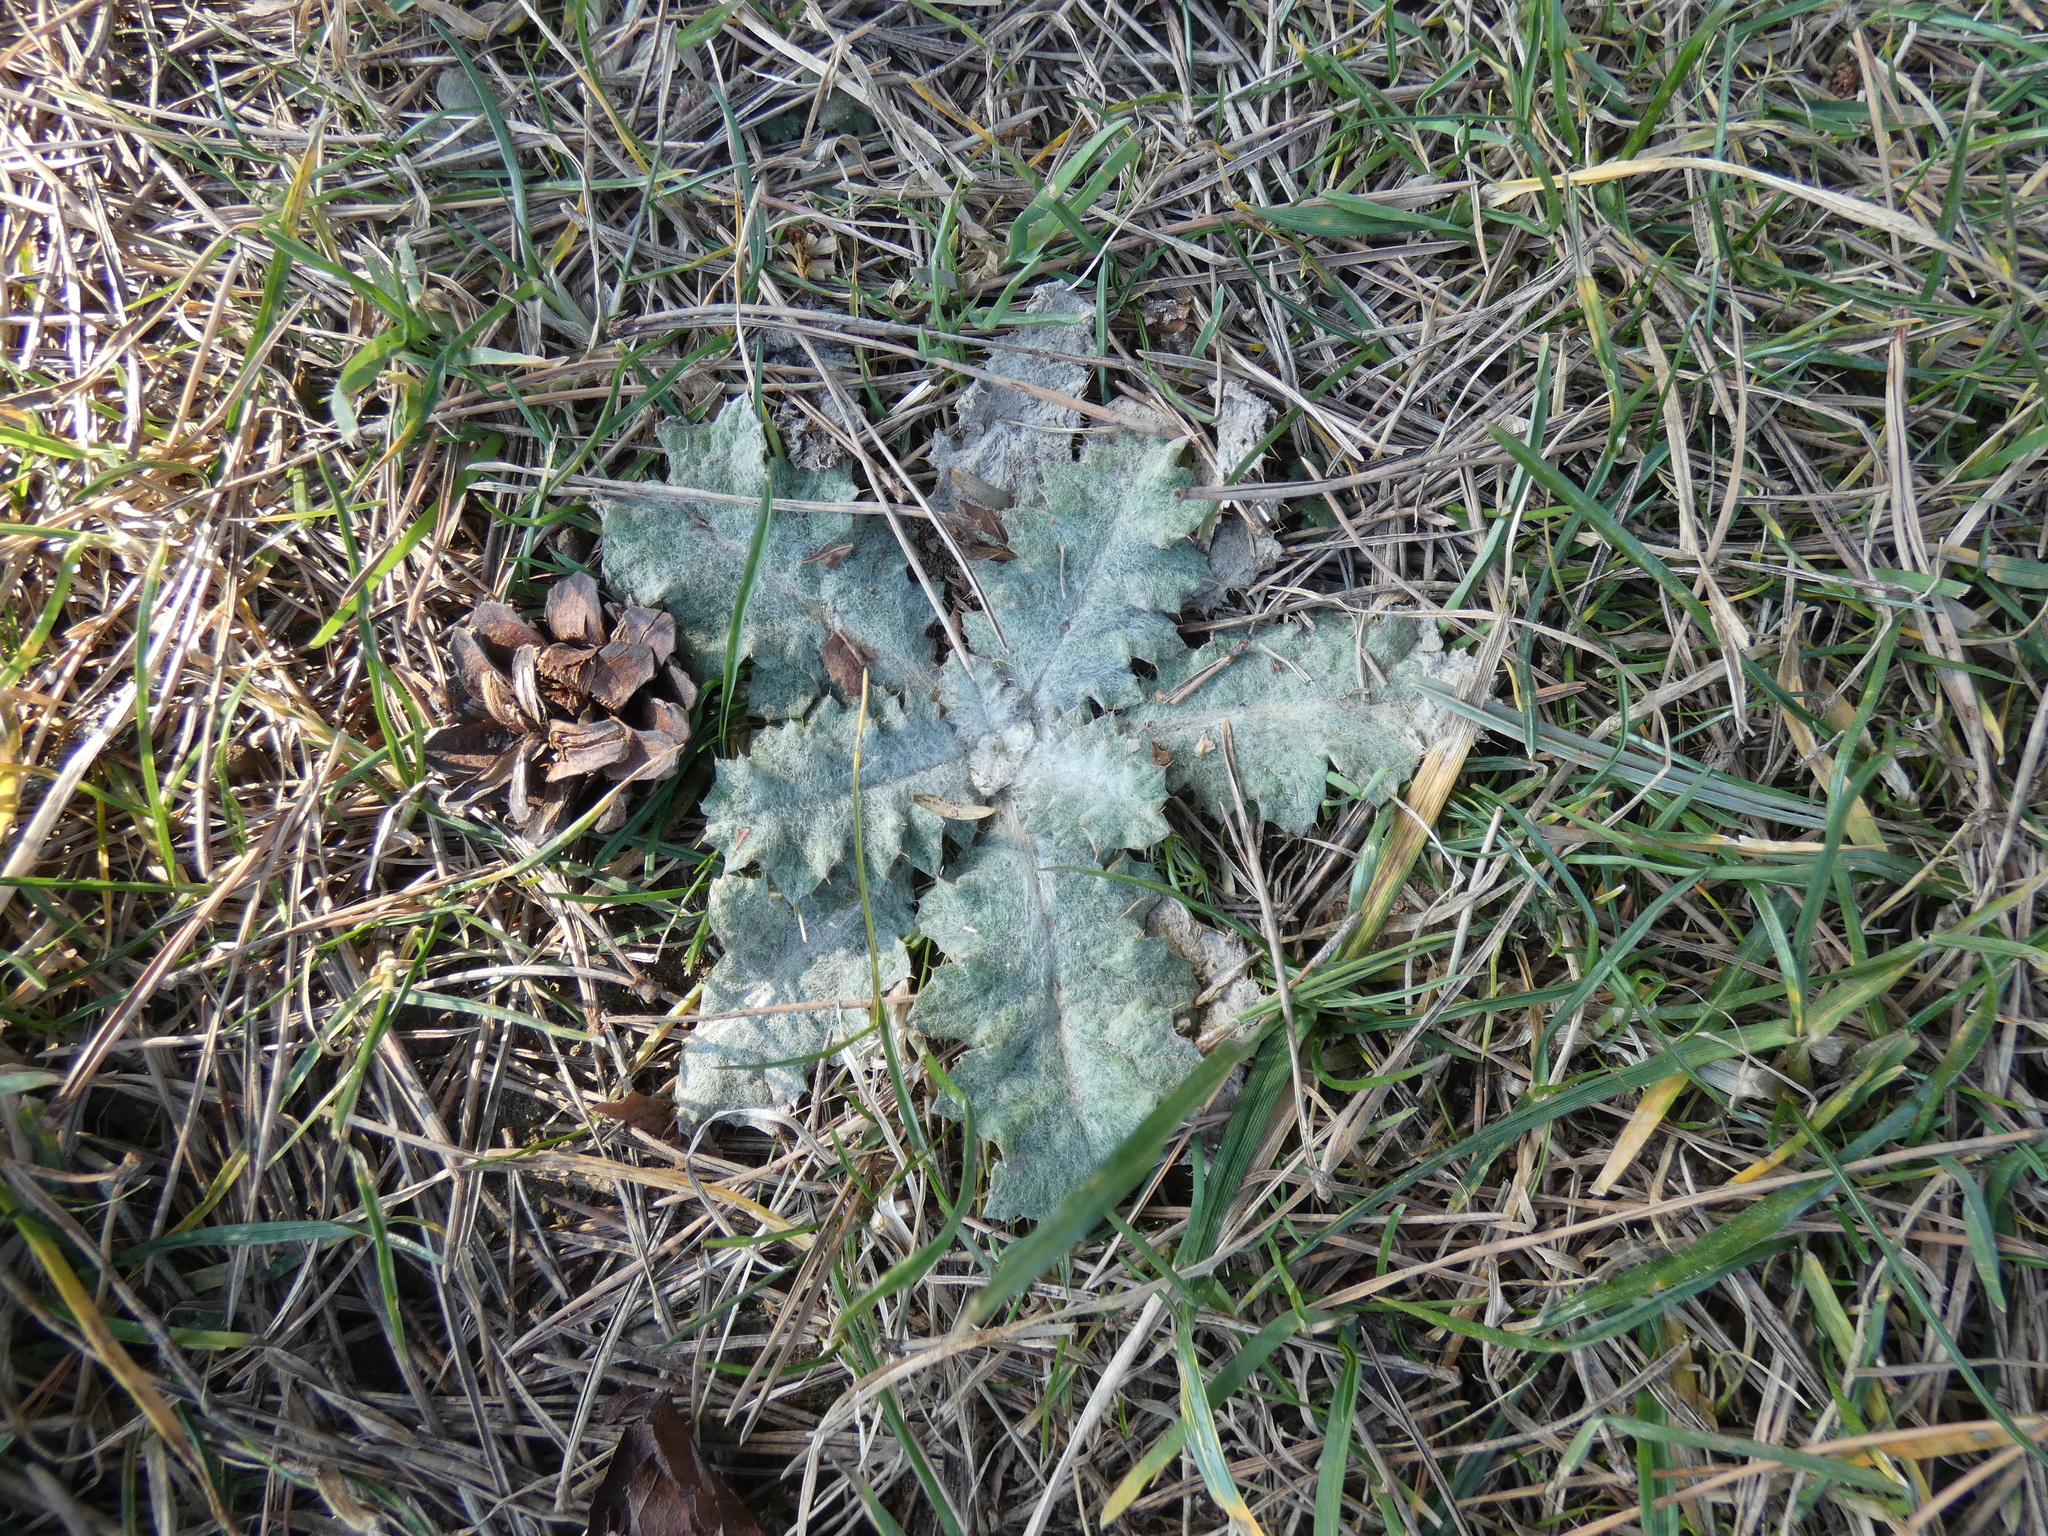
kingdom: Plantae
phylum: Tracheophyta
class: Magnoliopsida
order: Asterales
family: Asteraceae
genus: Onopordum
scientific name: Onopordum acanthium
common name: Scotch thistle
